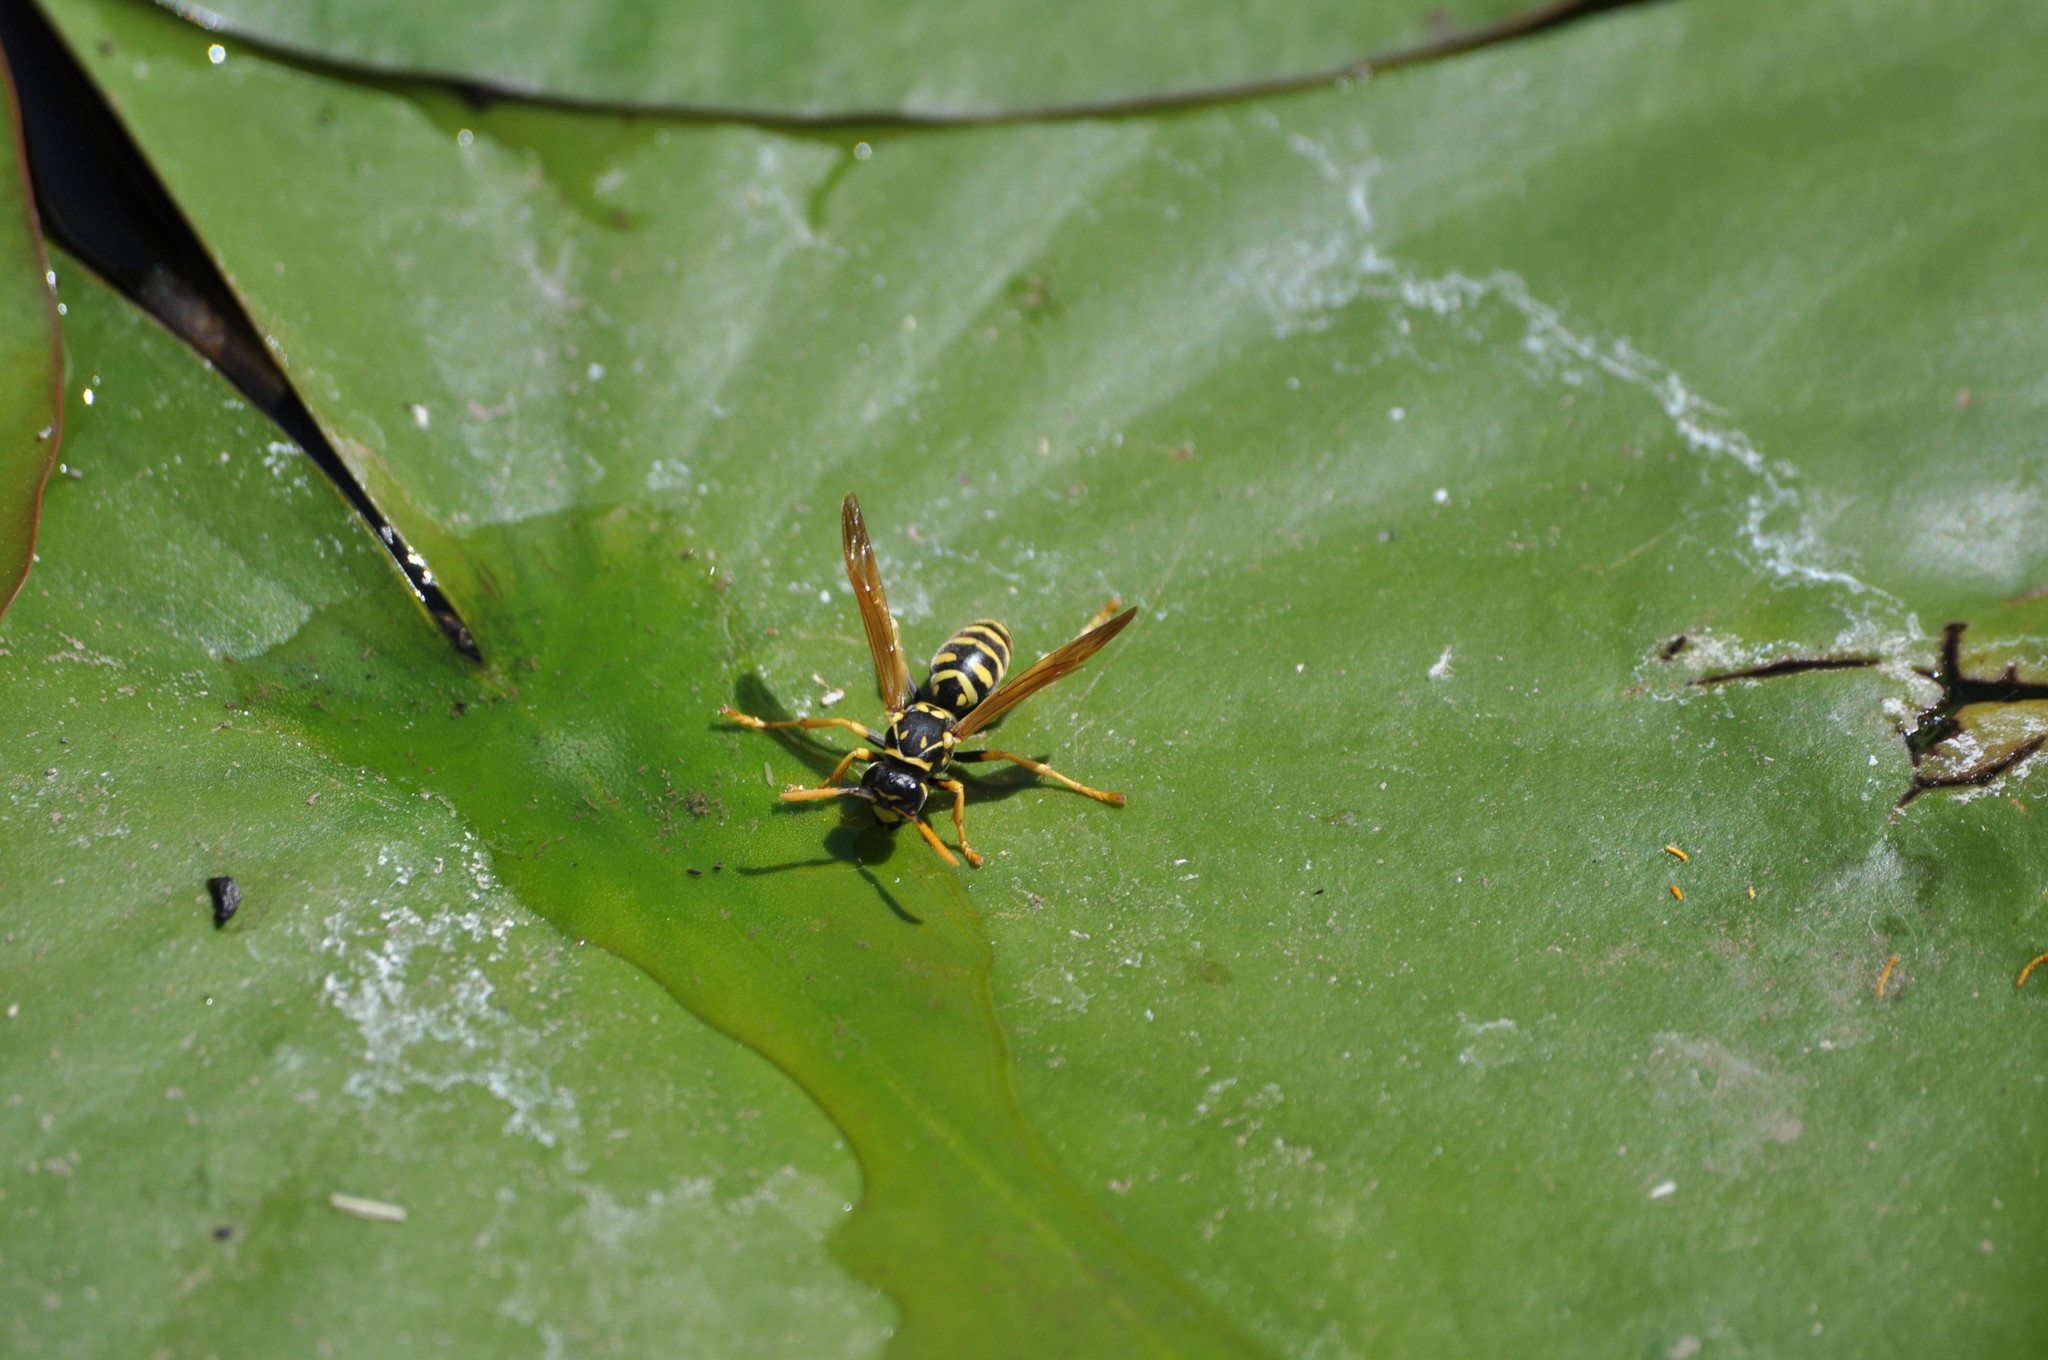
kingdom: Animalia
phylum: Arthropoda
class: Insecta
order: Hymenoptera
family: Eumenidae
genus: Polistes
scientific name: Polistes dominula
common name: Paper wasp
